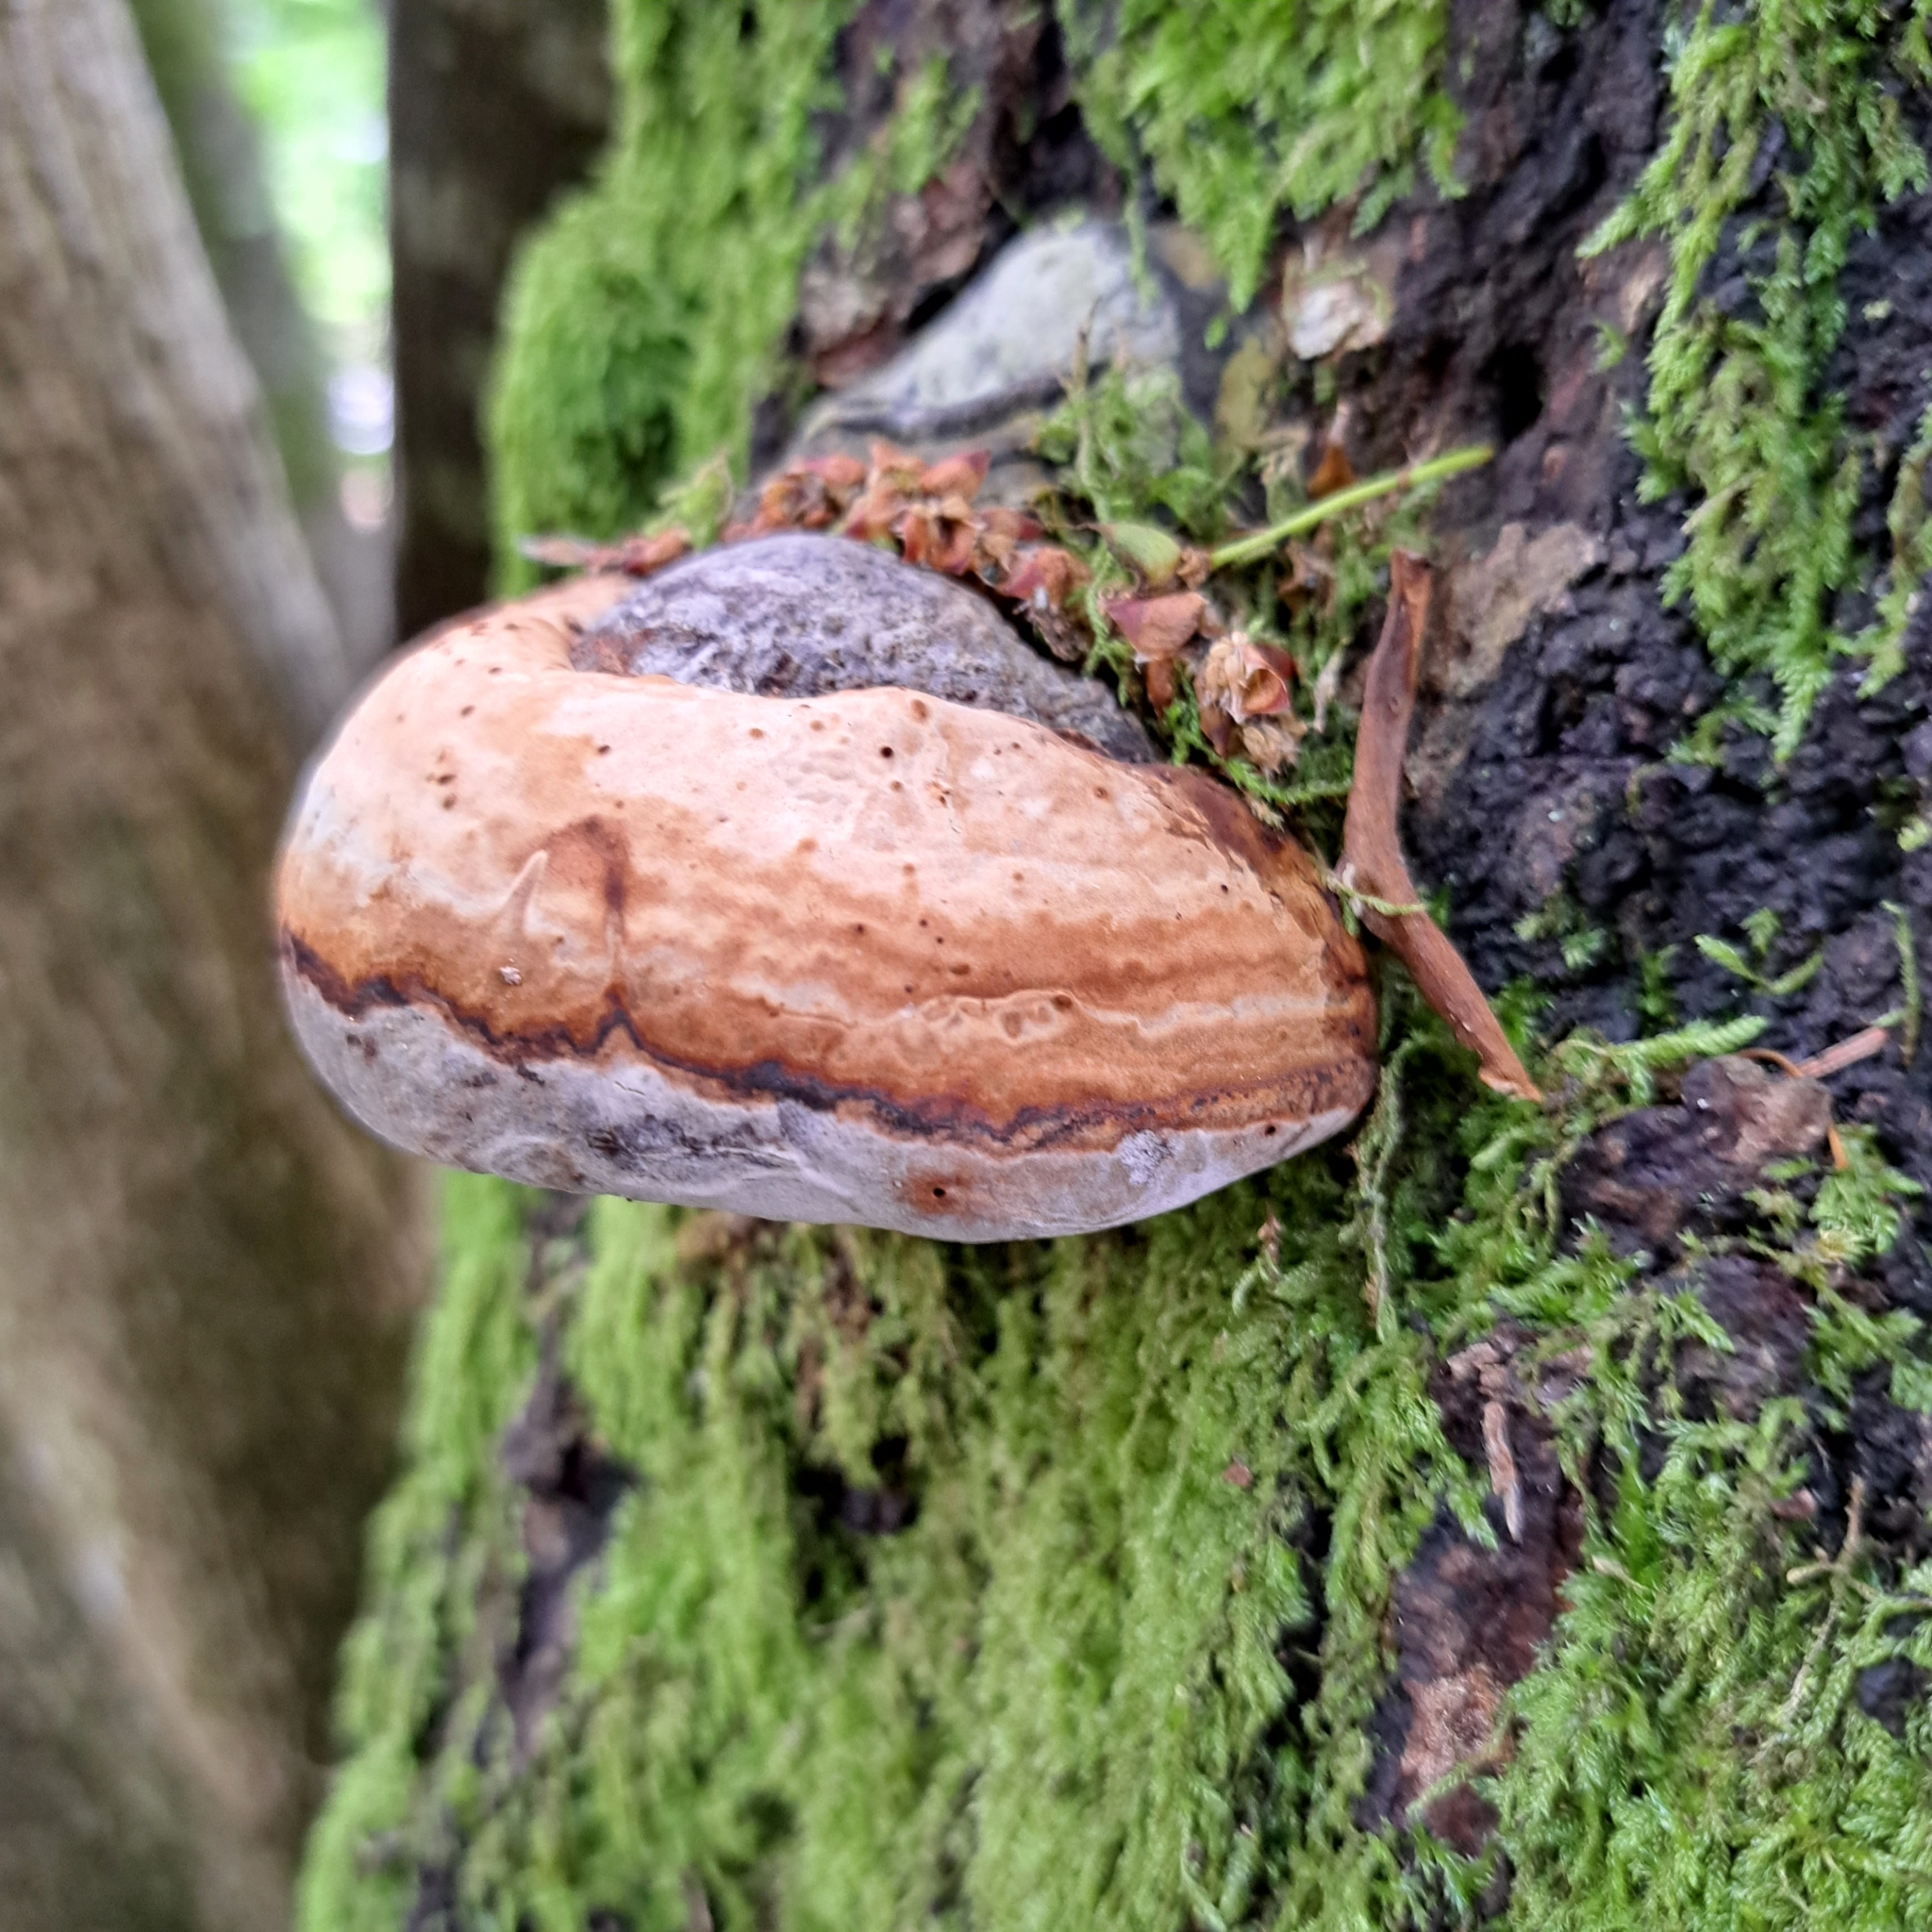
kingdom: Fungi
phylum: Basidiomycota
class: Agaricomycetes
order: Polyporales
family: Polyporaceae
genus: Fomes
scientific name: Fomes fomentarius
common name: Hoof fungus
